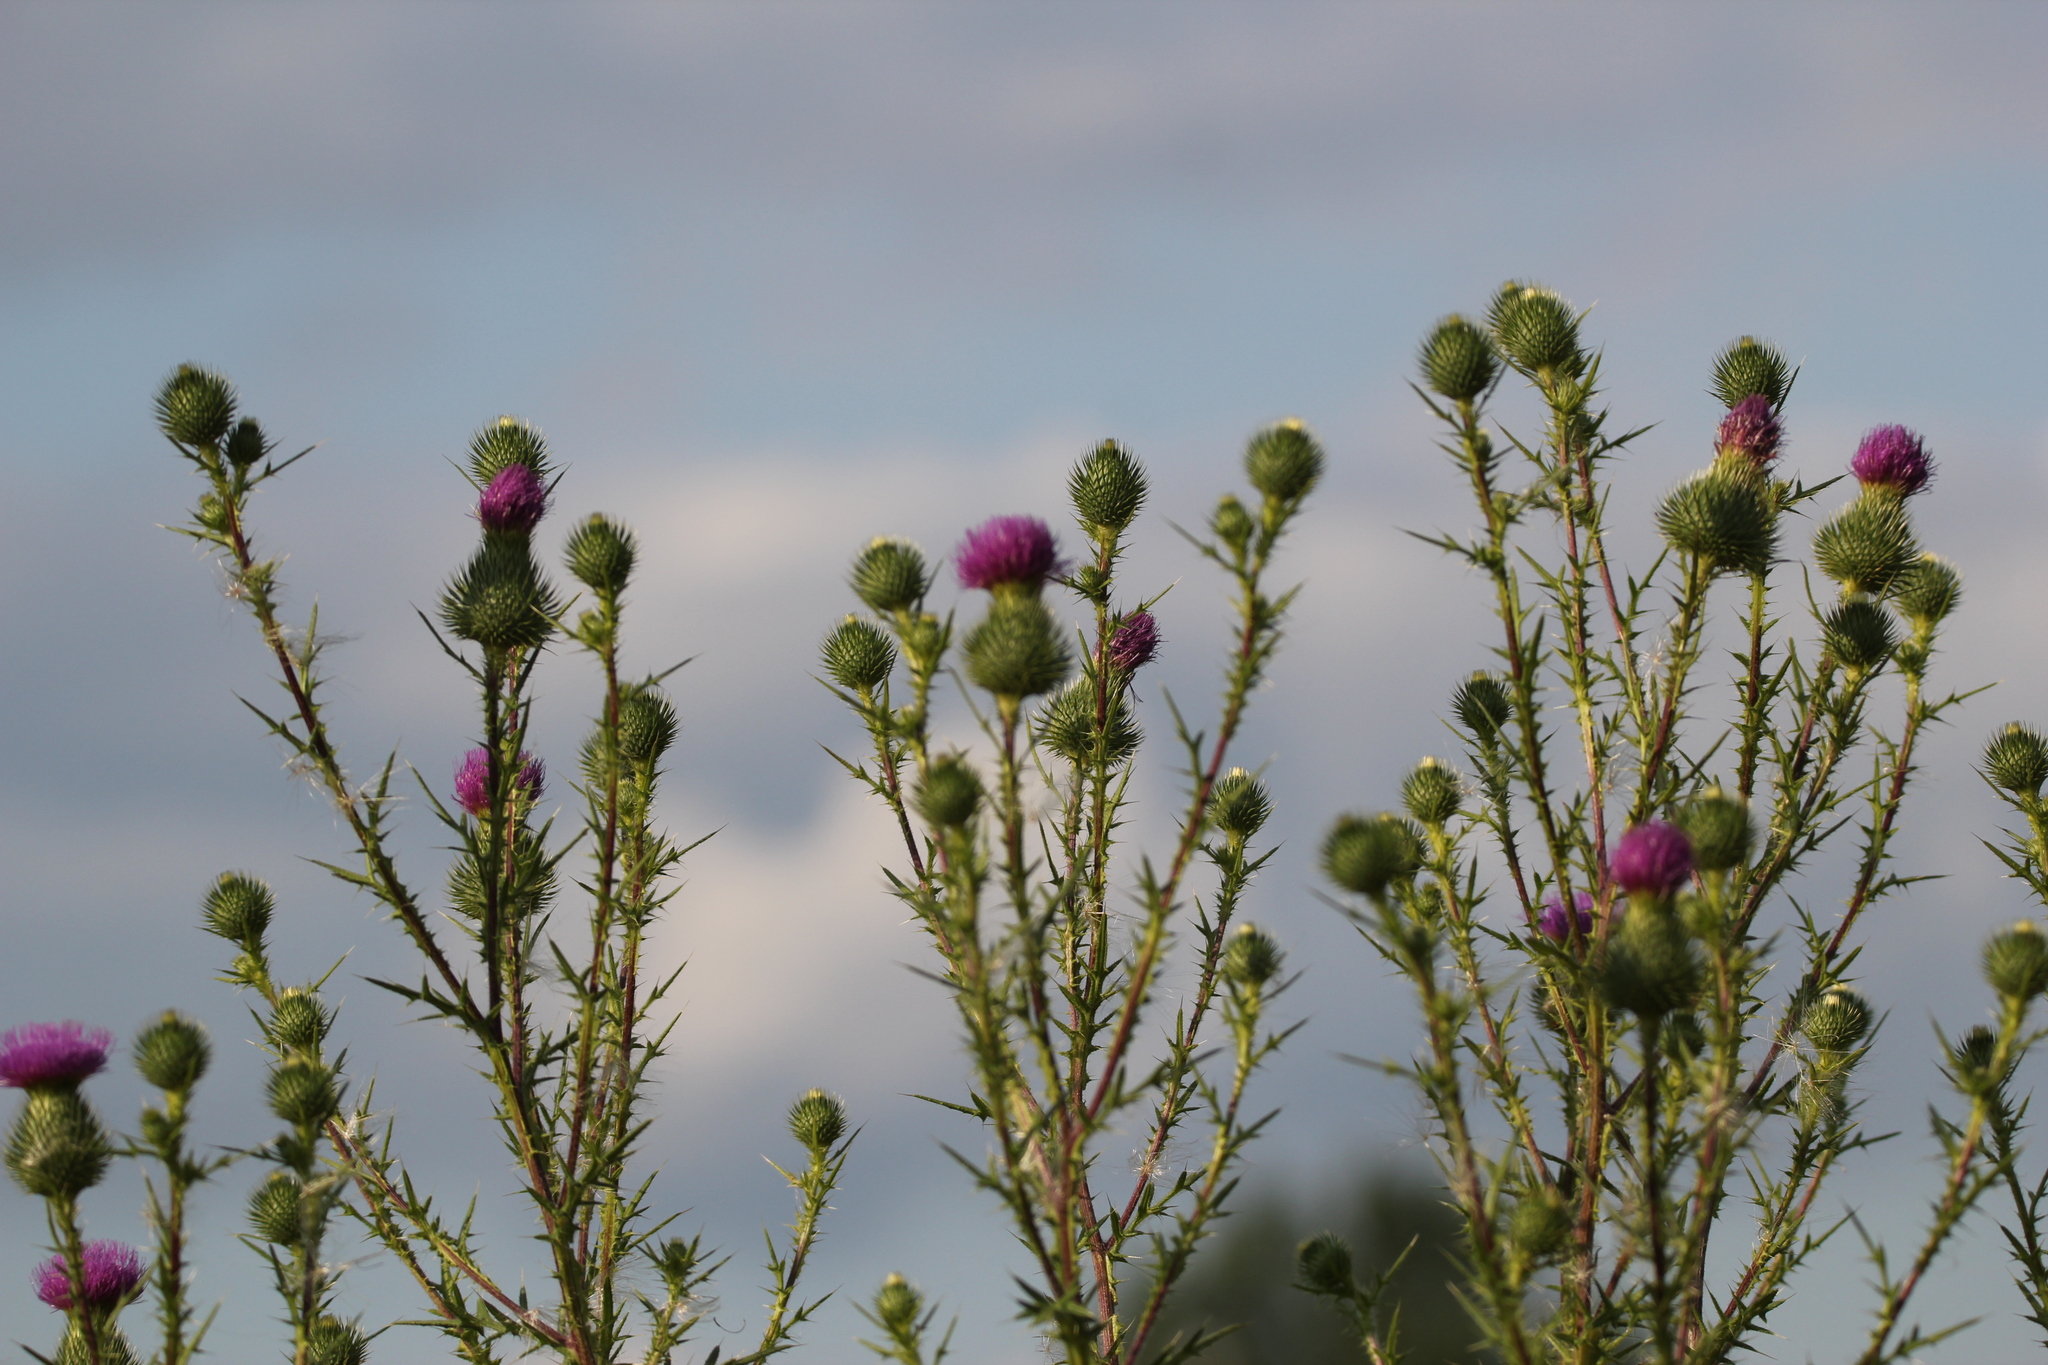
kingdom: Plantae
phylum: Tracheophyta
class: Magnoliopsida
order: Asterales
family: Asteraceae
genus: Cirsium
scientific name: Cirsium vulgare
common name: Bull thistle
